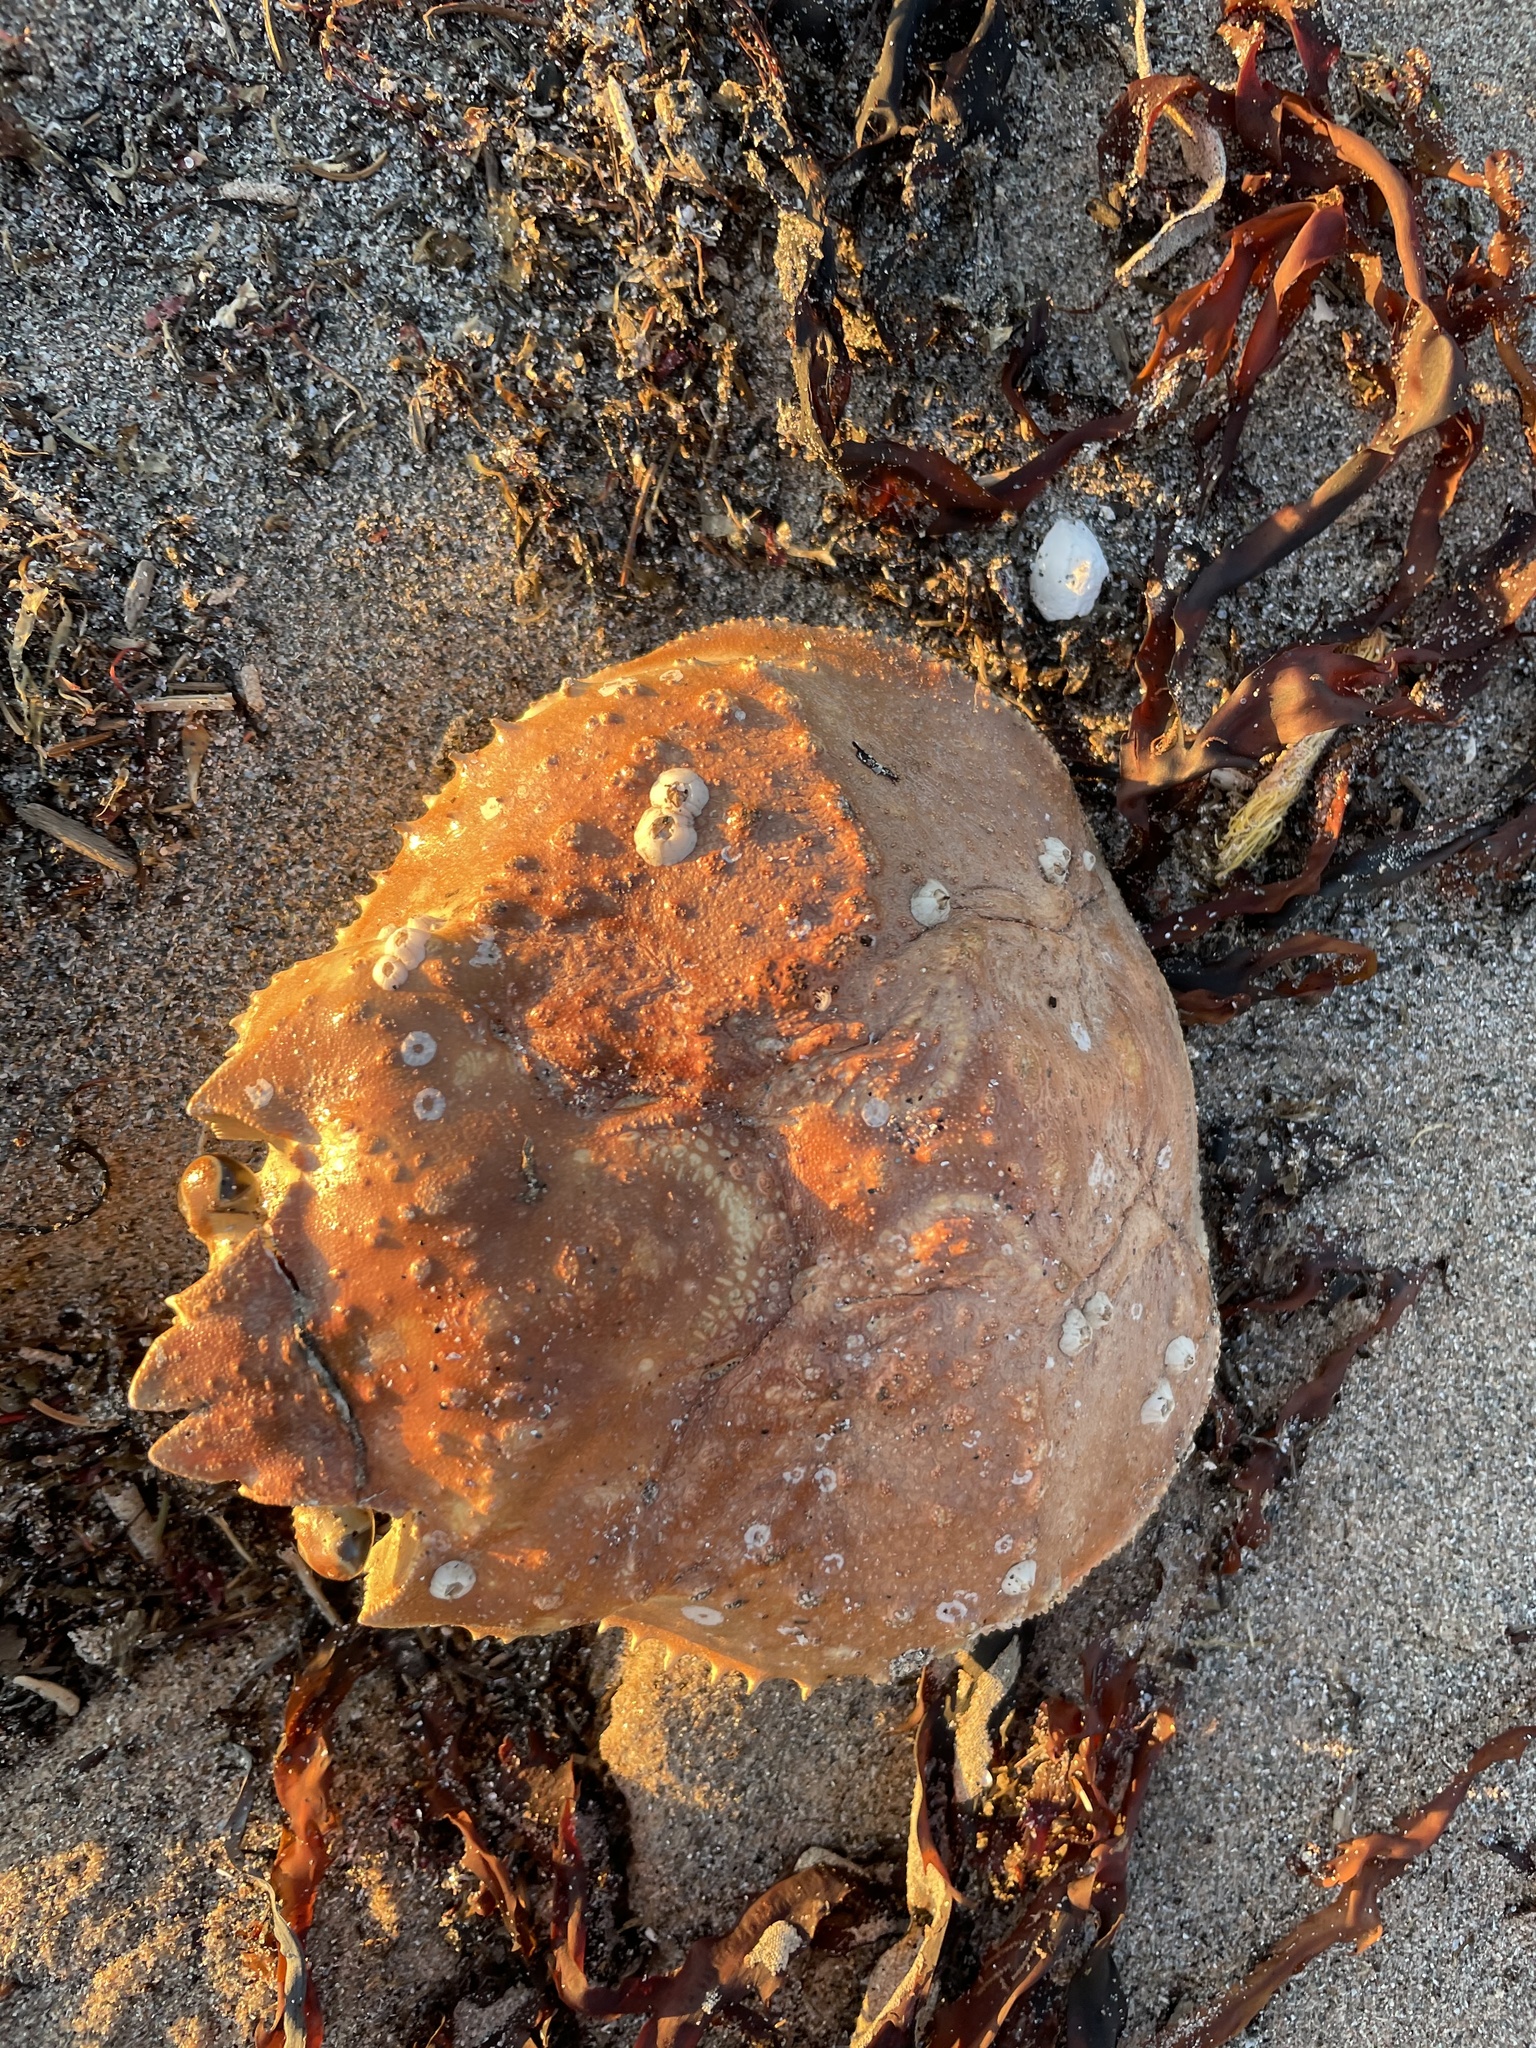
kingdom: Animalia
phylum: Arthropoda
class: Malacostraca
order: Decapoda
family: Oregoniidae
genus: Chionoecetes
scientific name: Chionoecetes opilio
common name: Atlantic snow crab
